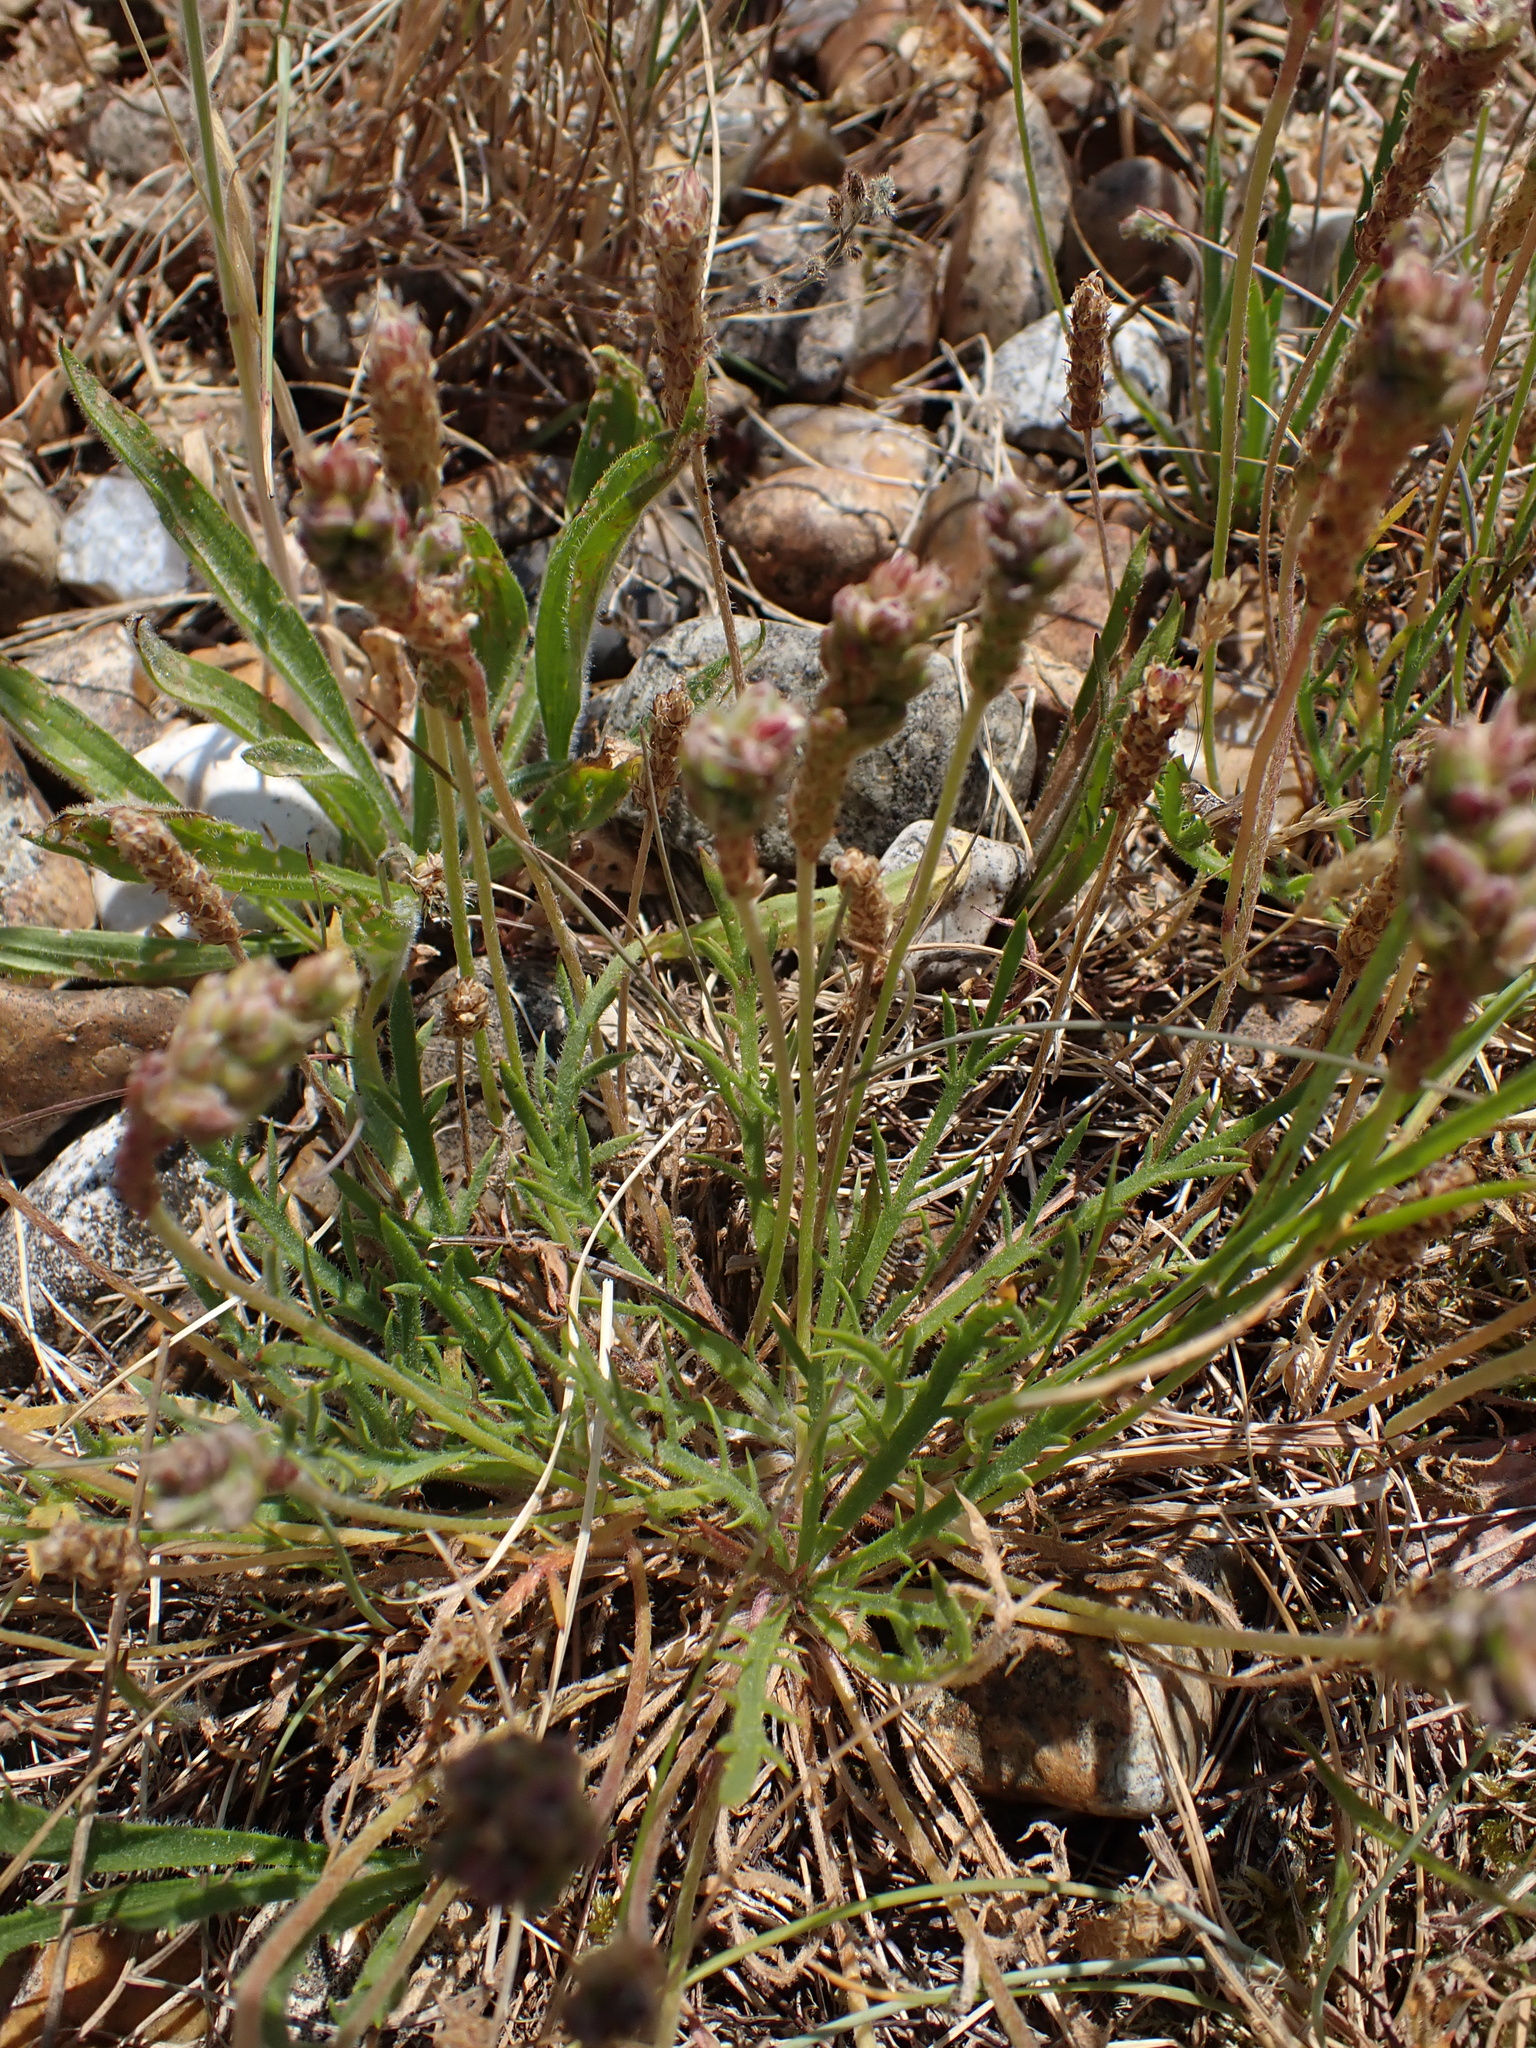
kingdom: Plantae
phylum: Tracheophyta
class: Magnoliopsida
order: Lamiales
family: Plantaginaceae
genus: Plantago
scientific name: Plantago coronopus
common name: Buck's-horn plantain
